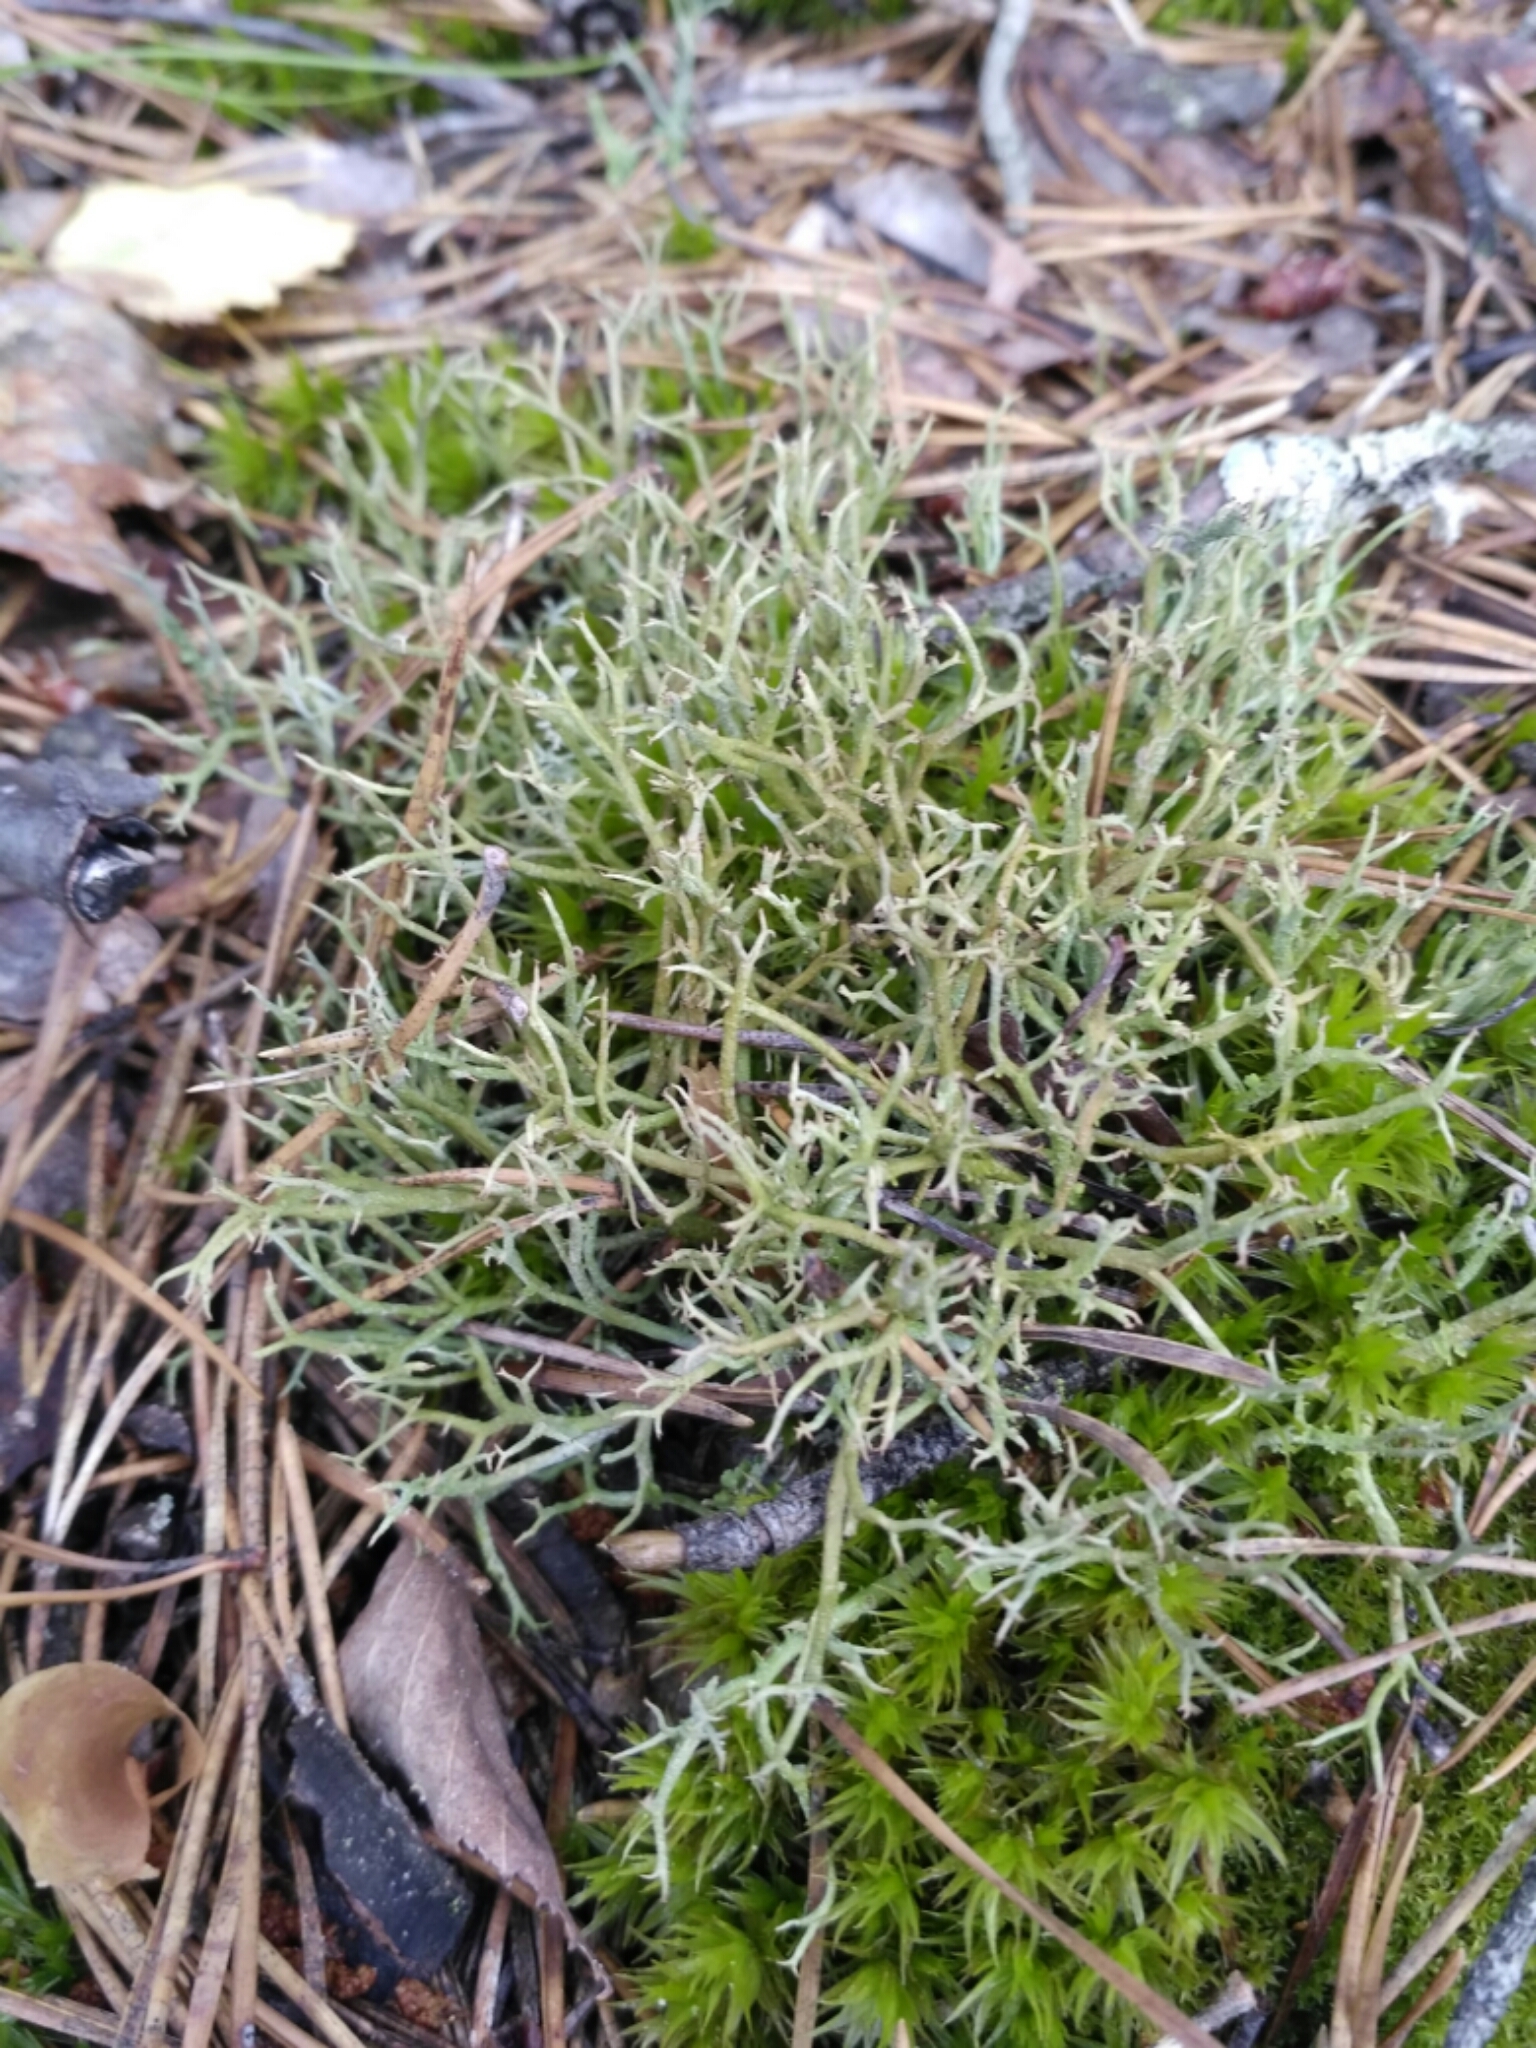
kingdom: Fungi
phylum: Ascomycota
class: Lecanoromycetes
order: Lecanorales
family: Cladoniaceae
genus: Cladonia
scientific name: Cladonia furcata
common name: Many-forked cladonia
